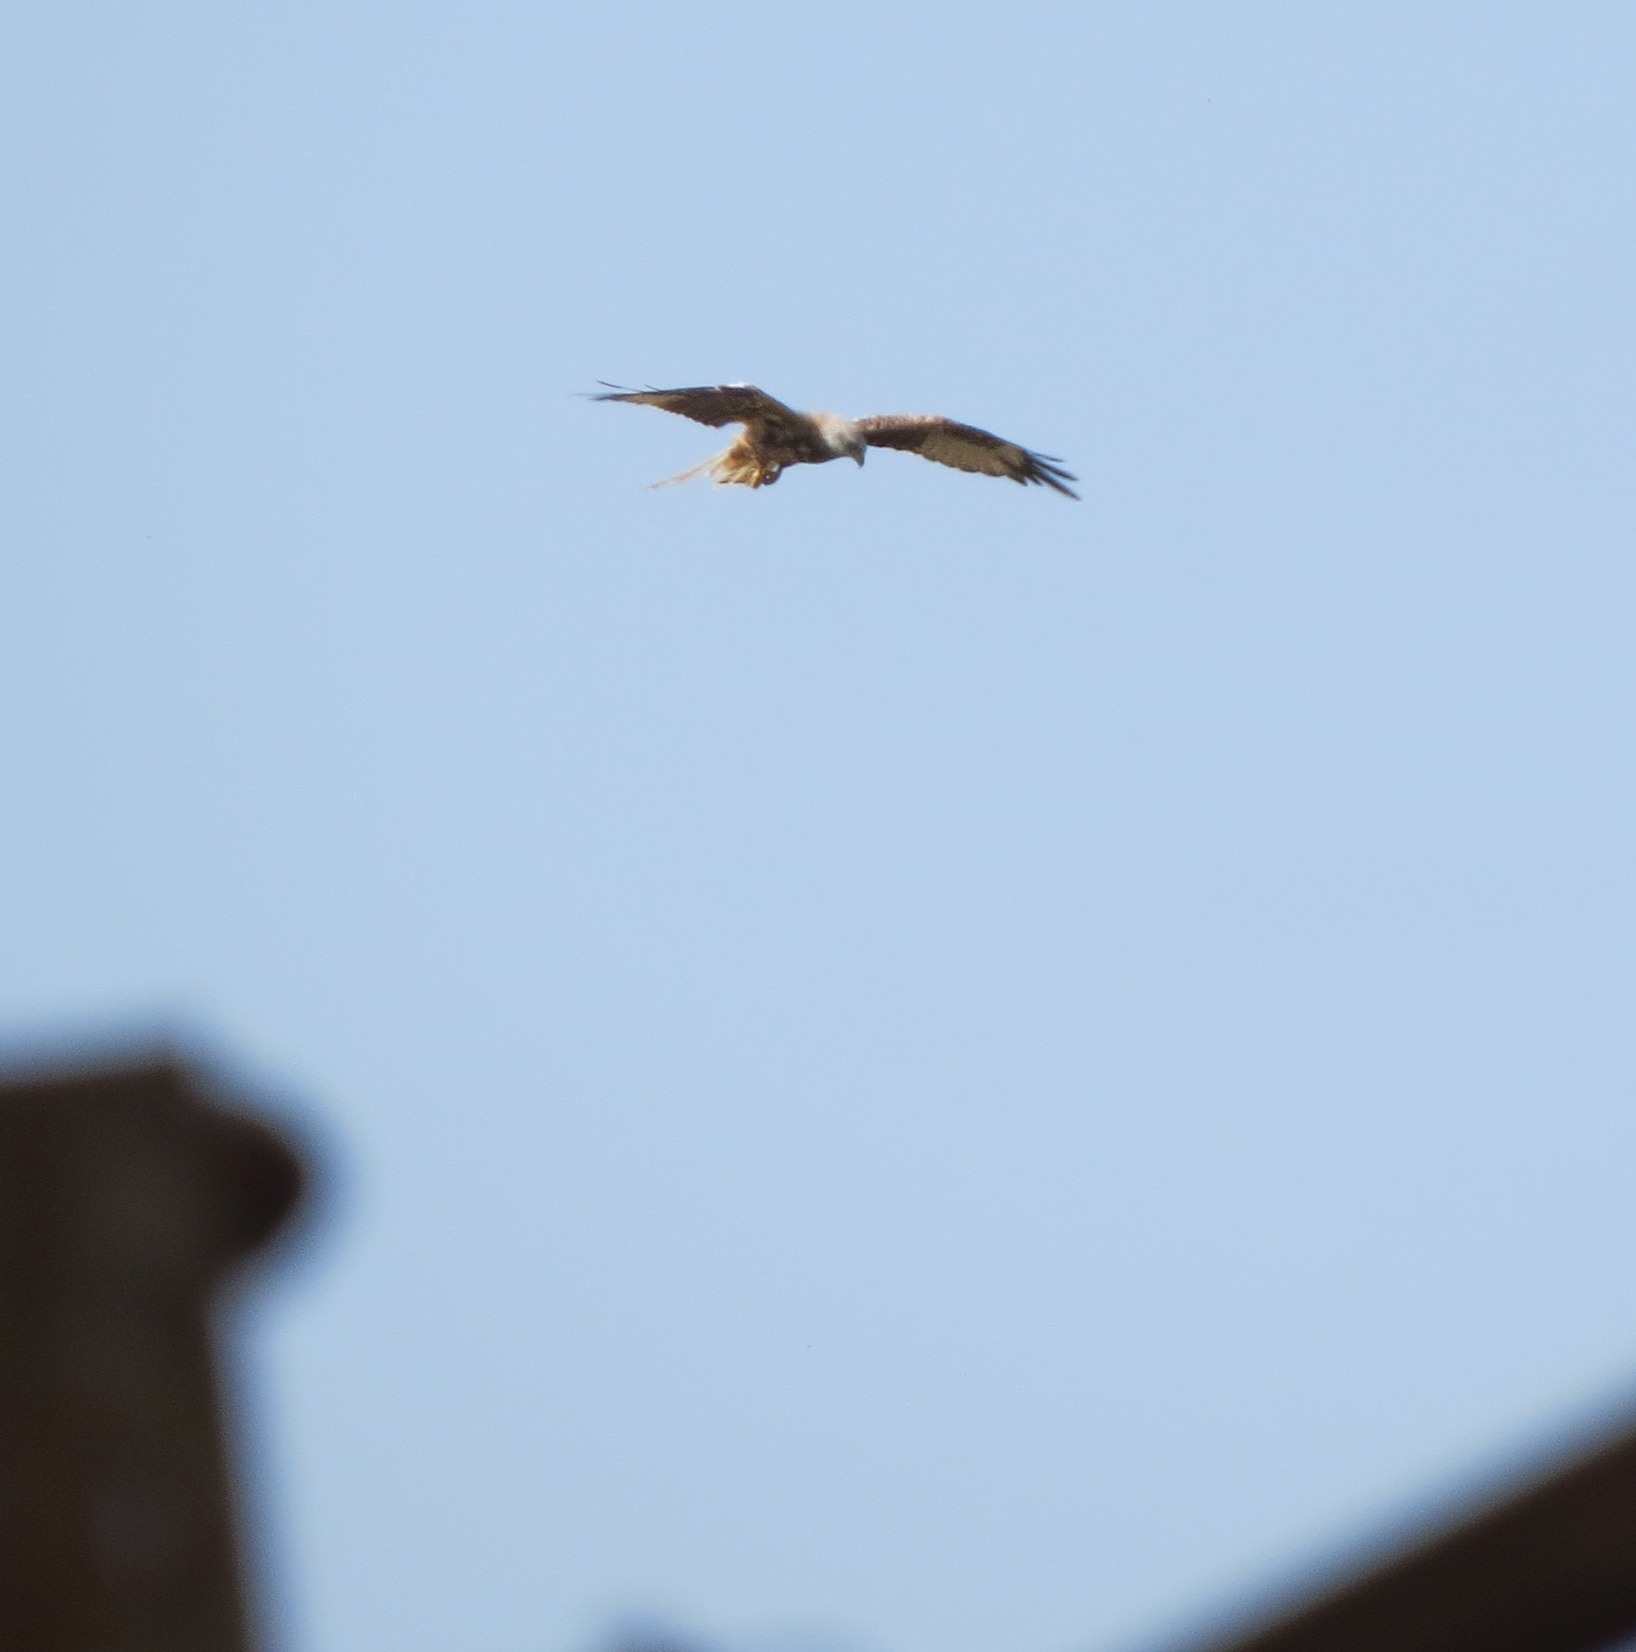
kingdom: Animalia
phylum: Chordata
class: Aves
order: Accipitriformes
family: Accipitridae
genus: Milvus
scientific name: Milvus milvus
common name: Red kite
